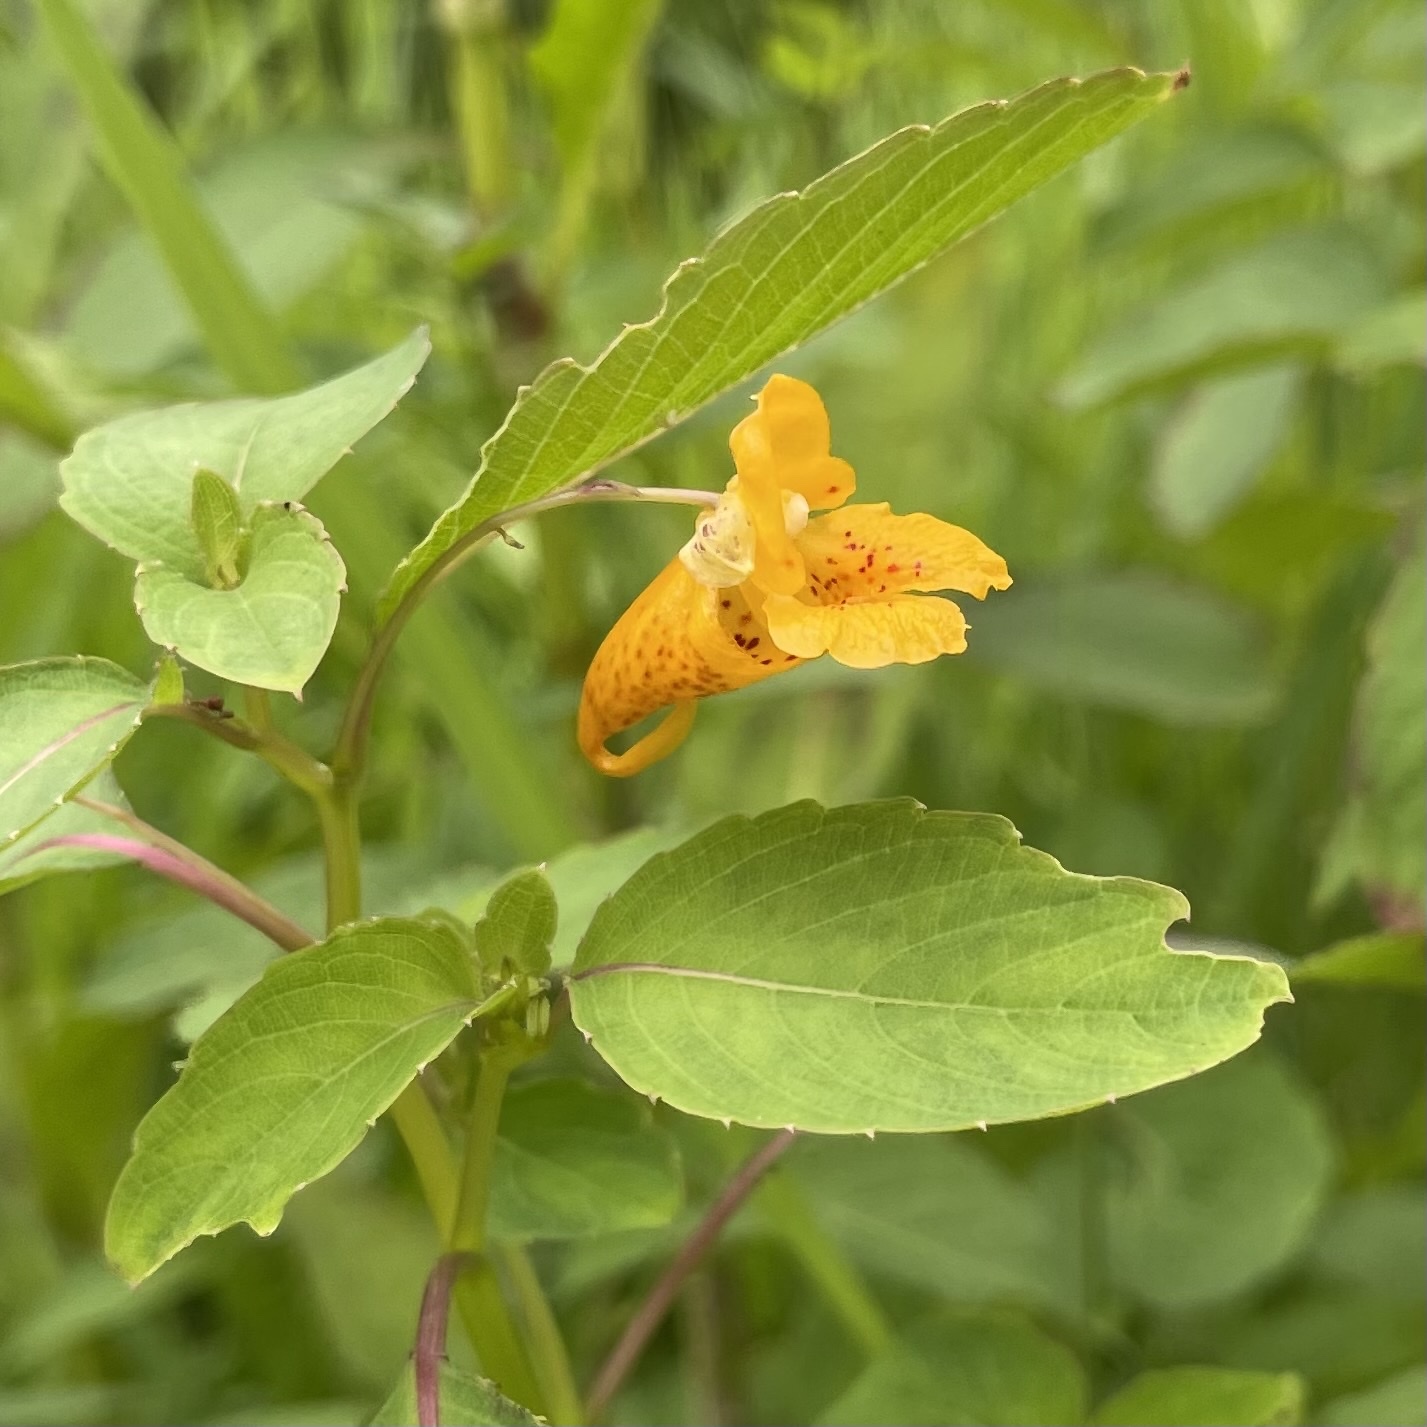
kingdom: Plantae
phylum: Tracheophyta
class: Magnoliopsida
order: Ericales
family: Balsaminaceae
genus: Impatiens
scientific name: Impatiens capensis
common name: Orange balsam
